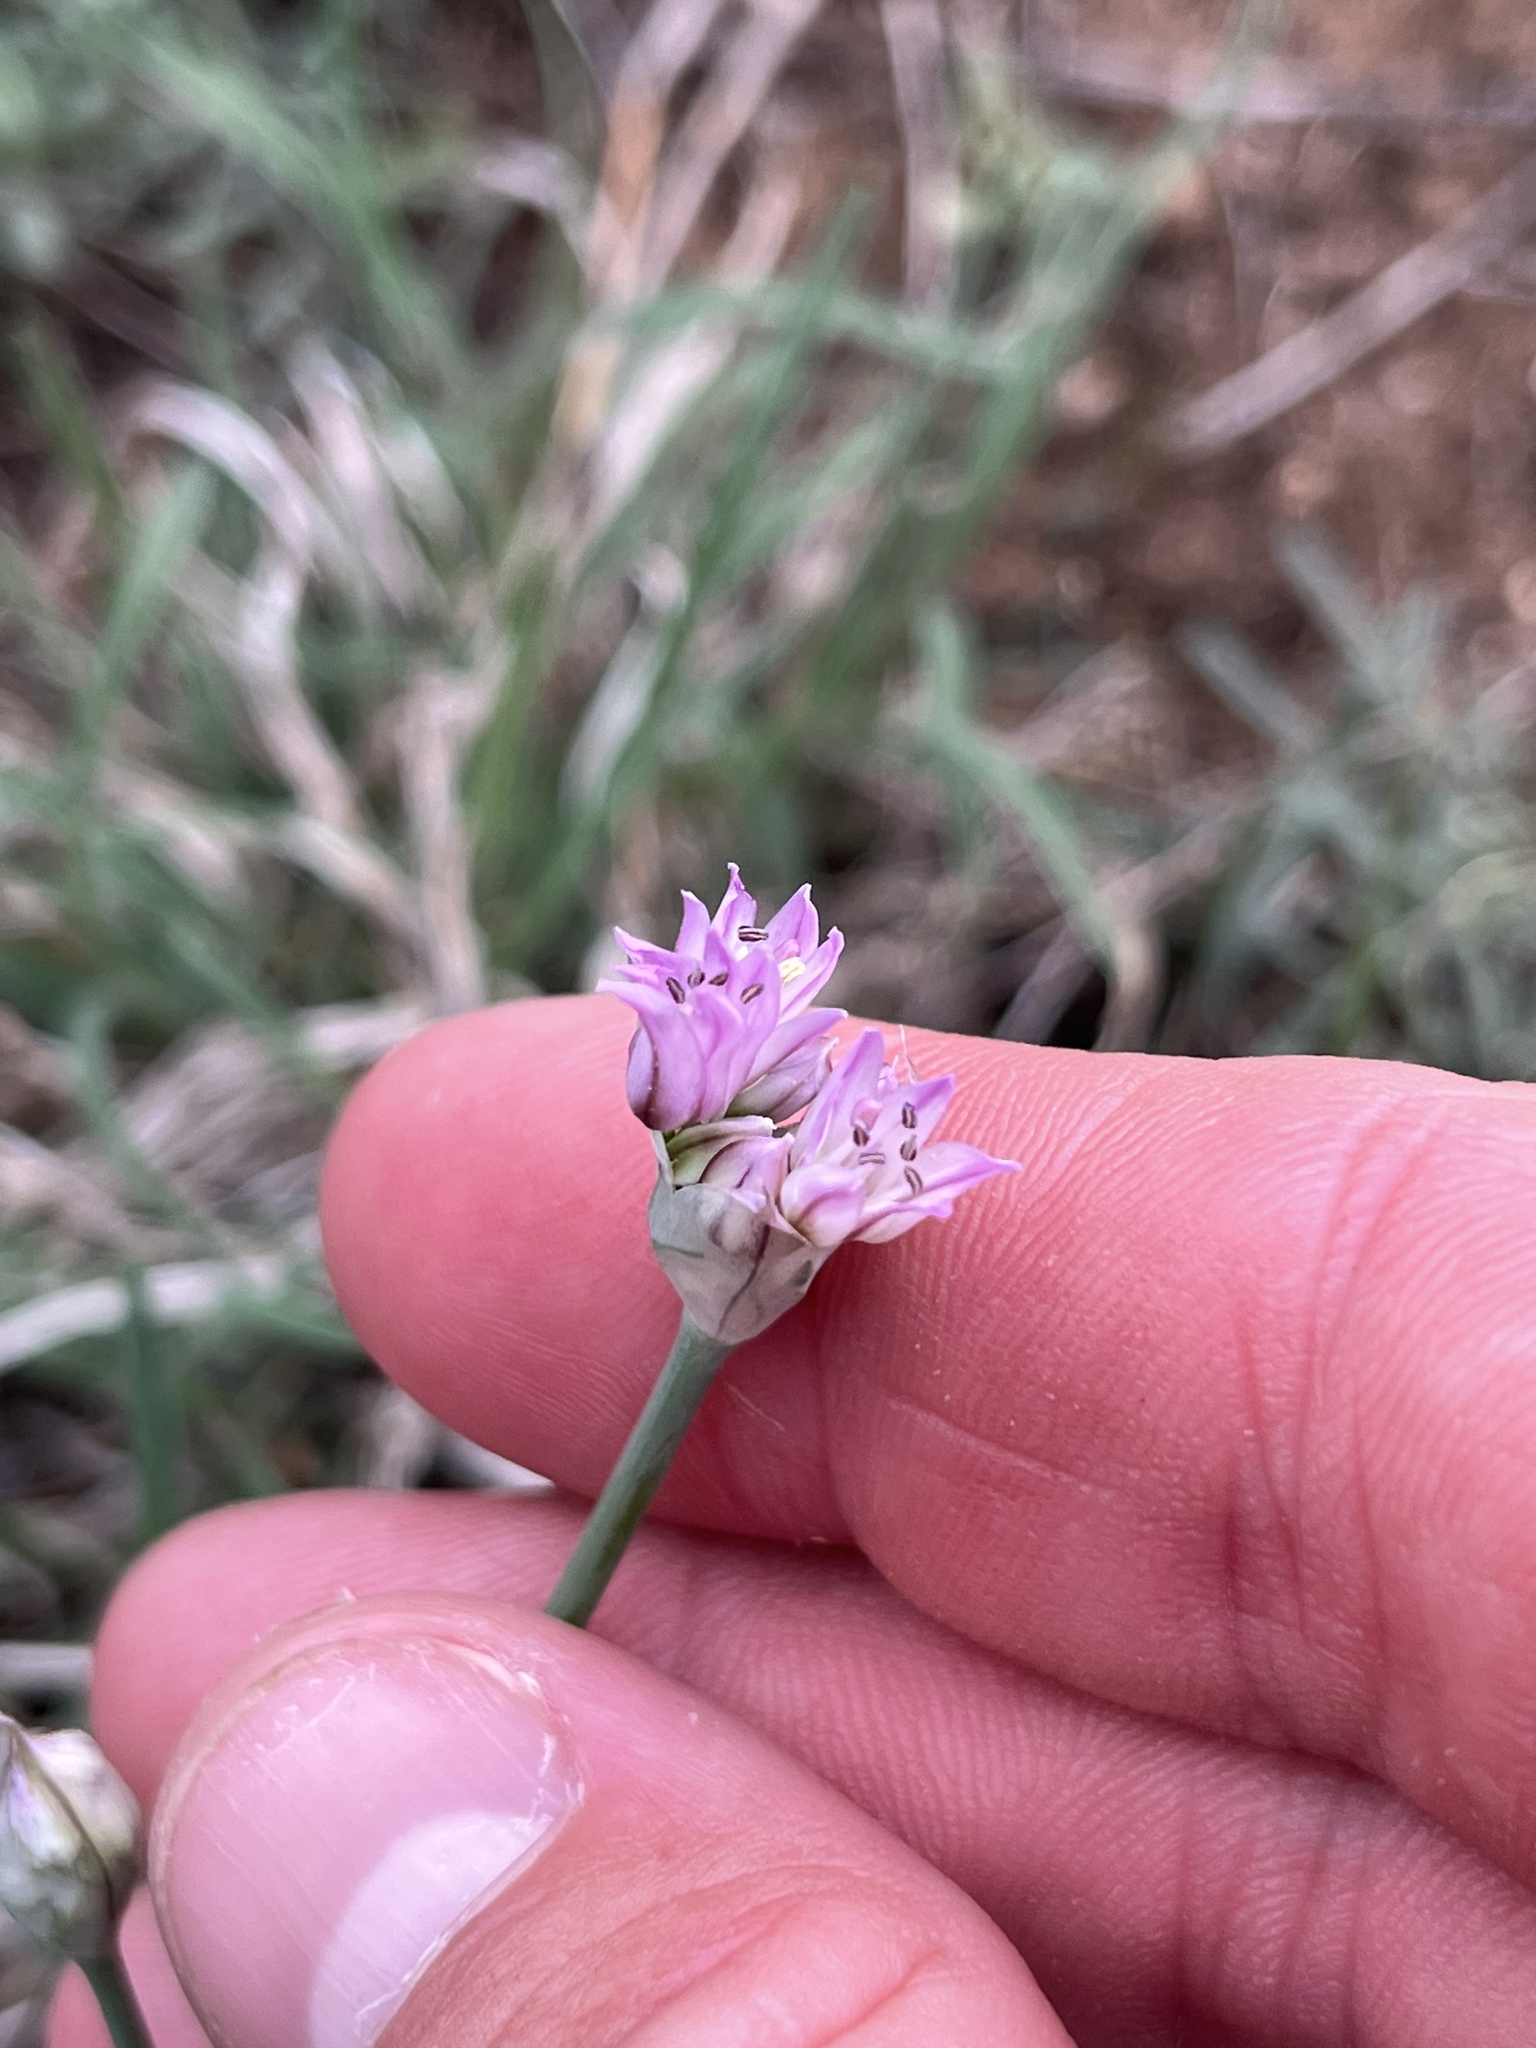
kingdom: Plantae
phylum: Tracheophyta
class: Liliopsida
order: Asparagales
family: Amaryllidaceae
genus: Allium
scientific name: Allium drummondii
